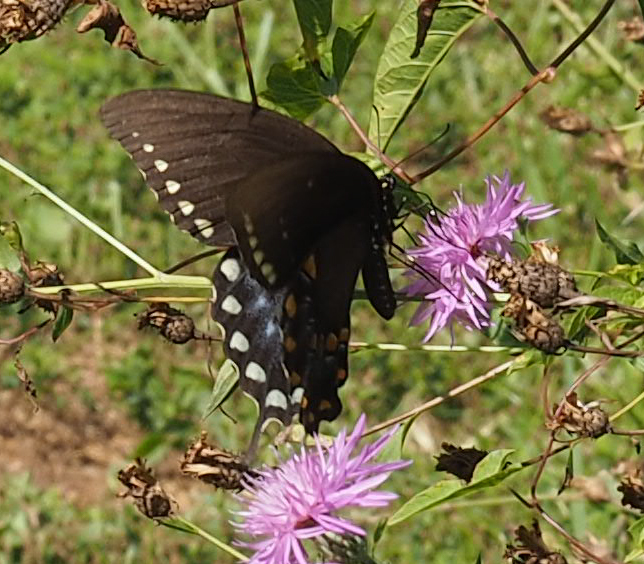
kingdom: Animalia
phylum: Arthropoda
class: Insecta
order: Lepidoptera
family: Papilionidae
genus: Papilio
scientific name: Papilio troilus
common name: Spicebush swallowtail
